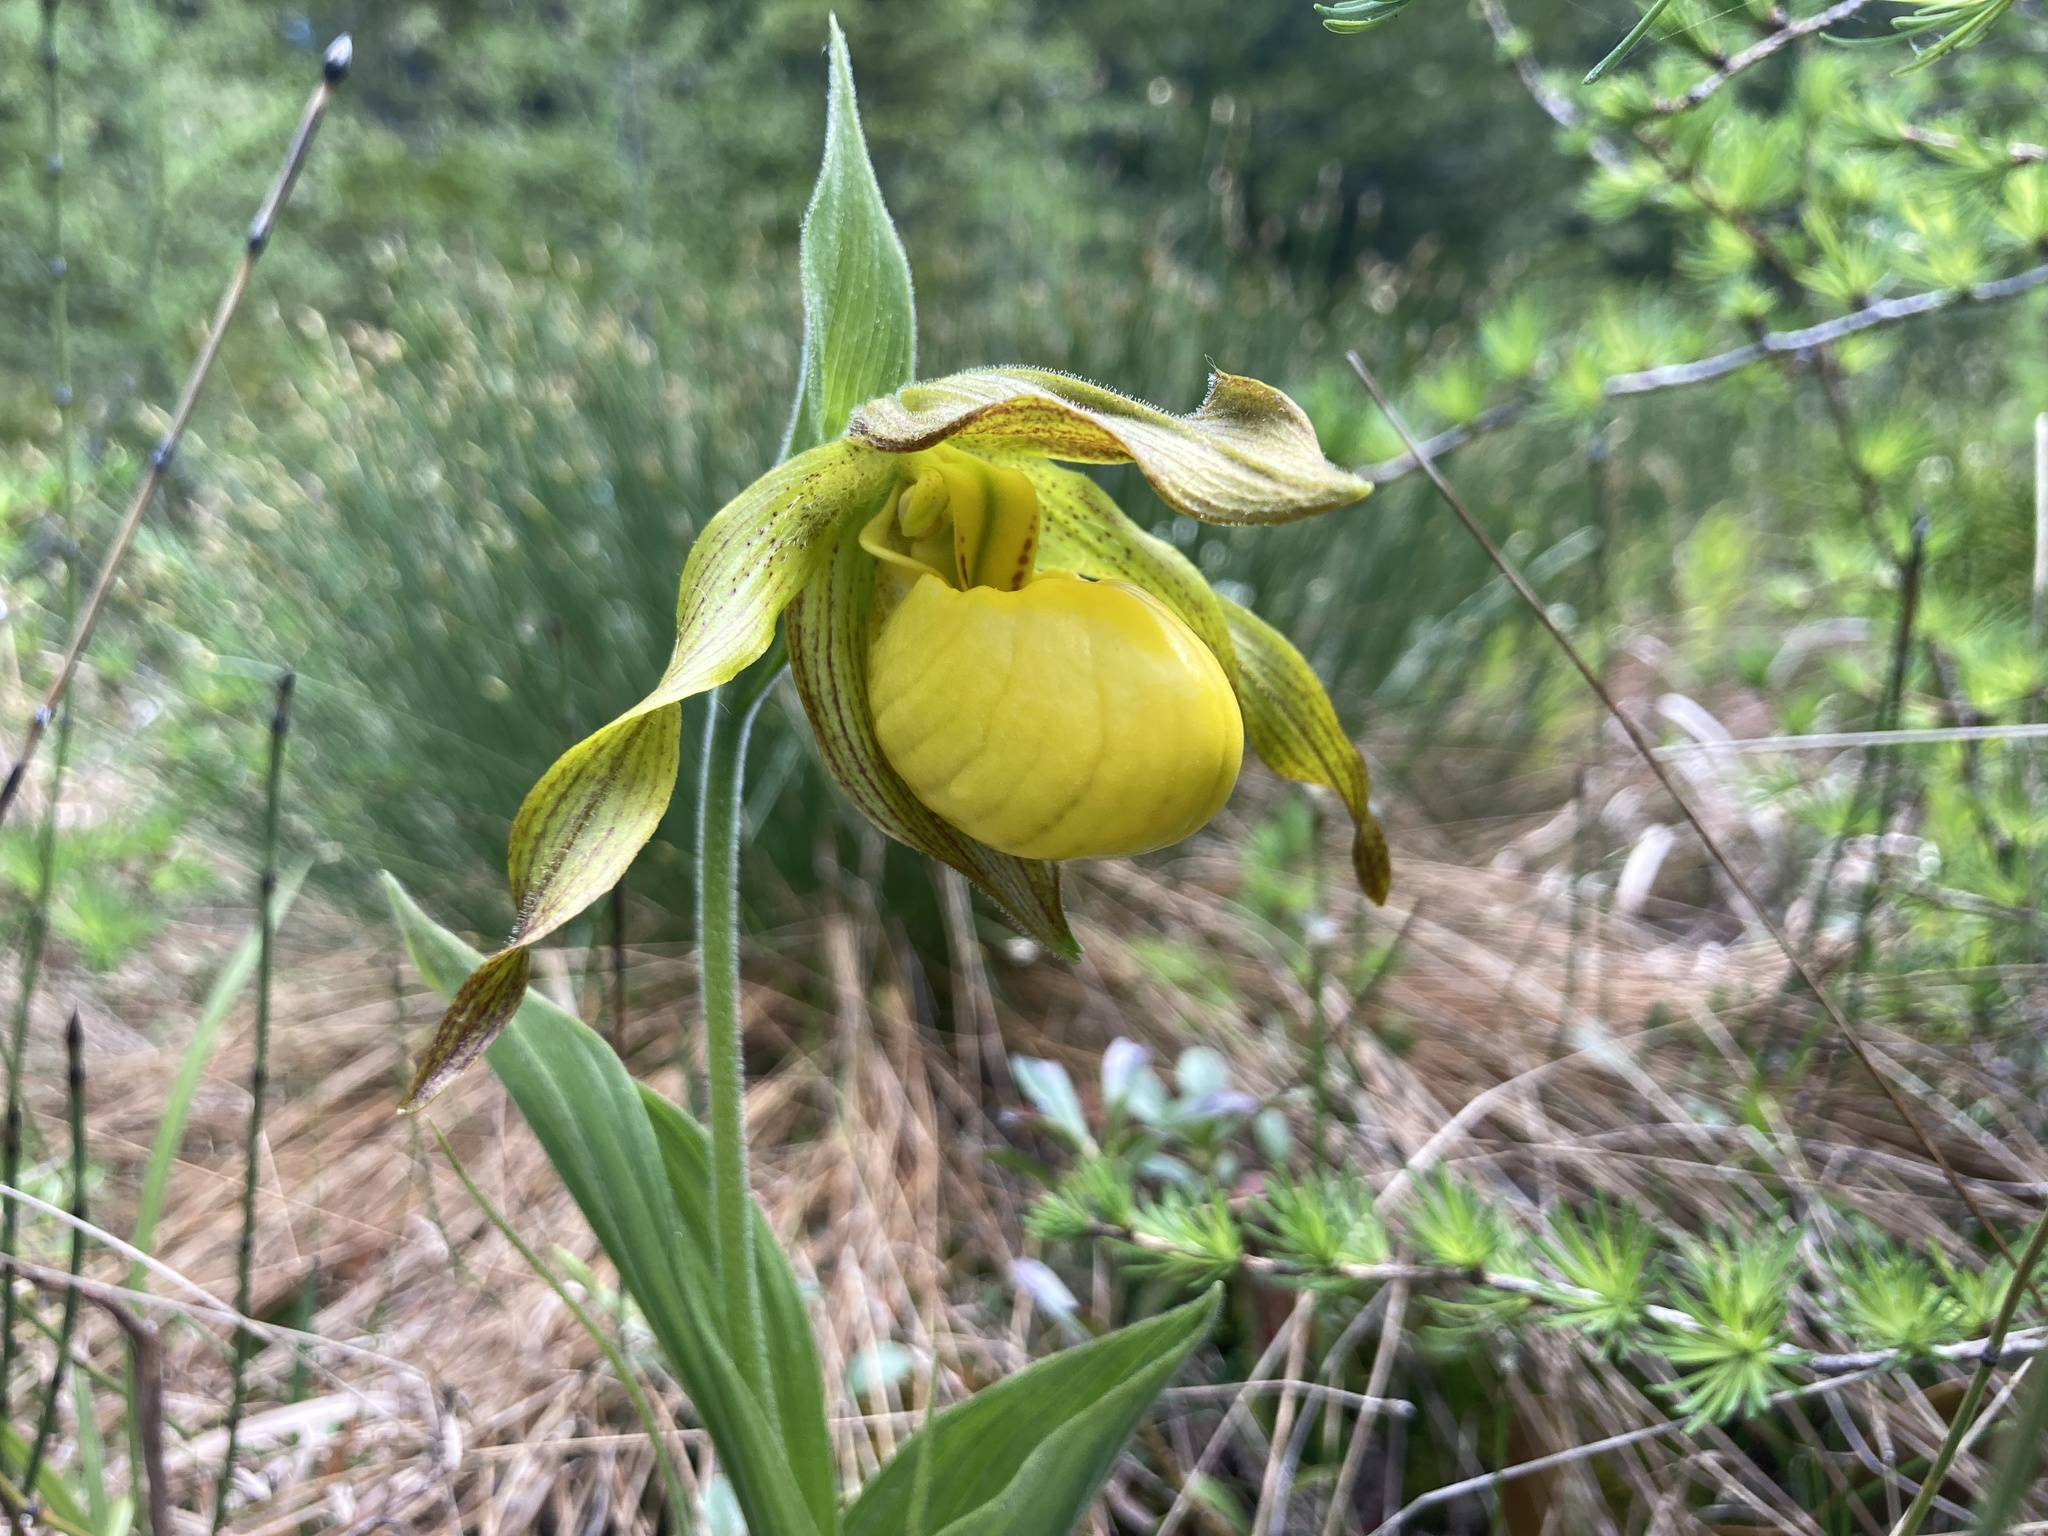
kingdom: Plantae
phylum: Tracheophyta
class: Liliopsida
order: Asparagales
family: Orchidaceae
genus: Cypripedium
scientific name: Cypripedium parviflorum
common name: American yellow lady's-slipper
